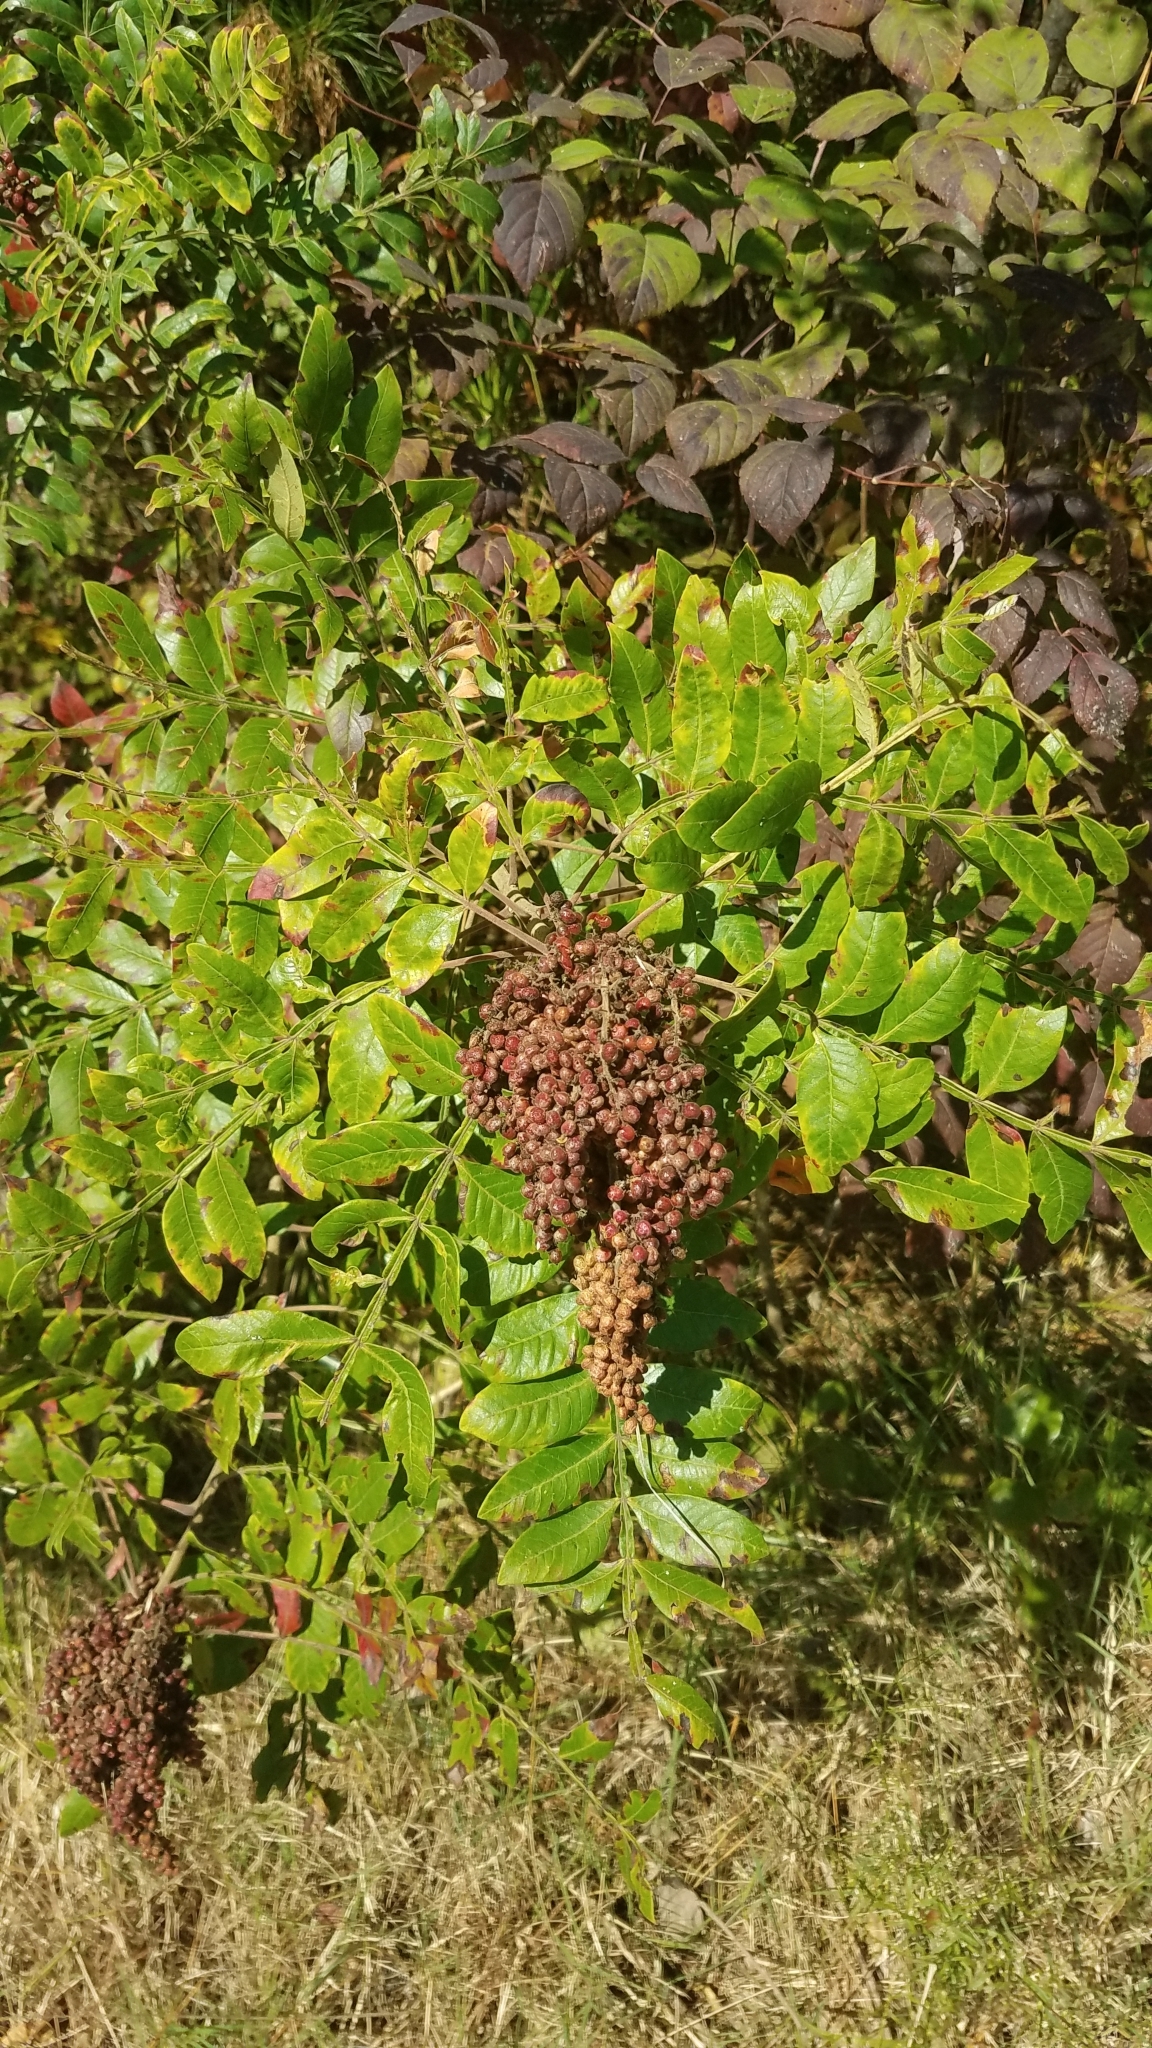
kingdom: Plantae
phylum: Tracheophyta
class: Magnoliopsida
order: Sapindales
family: Anacardiaceae
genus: Rhus
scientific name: Rhus copallina
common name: Shining sumac
